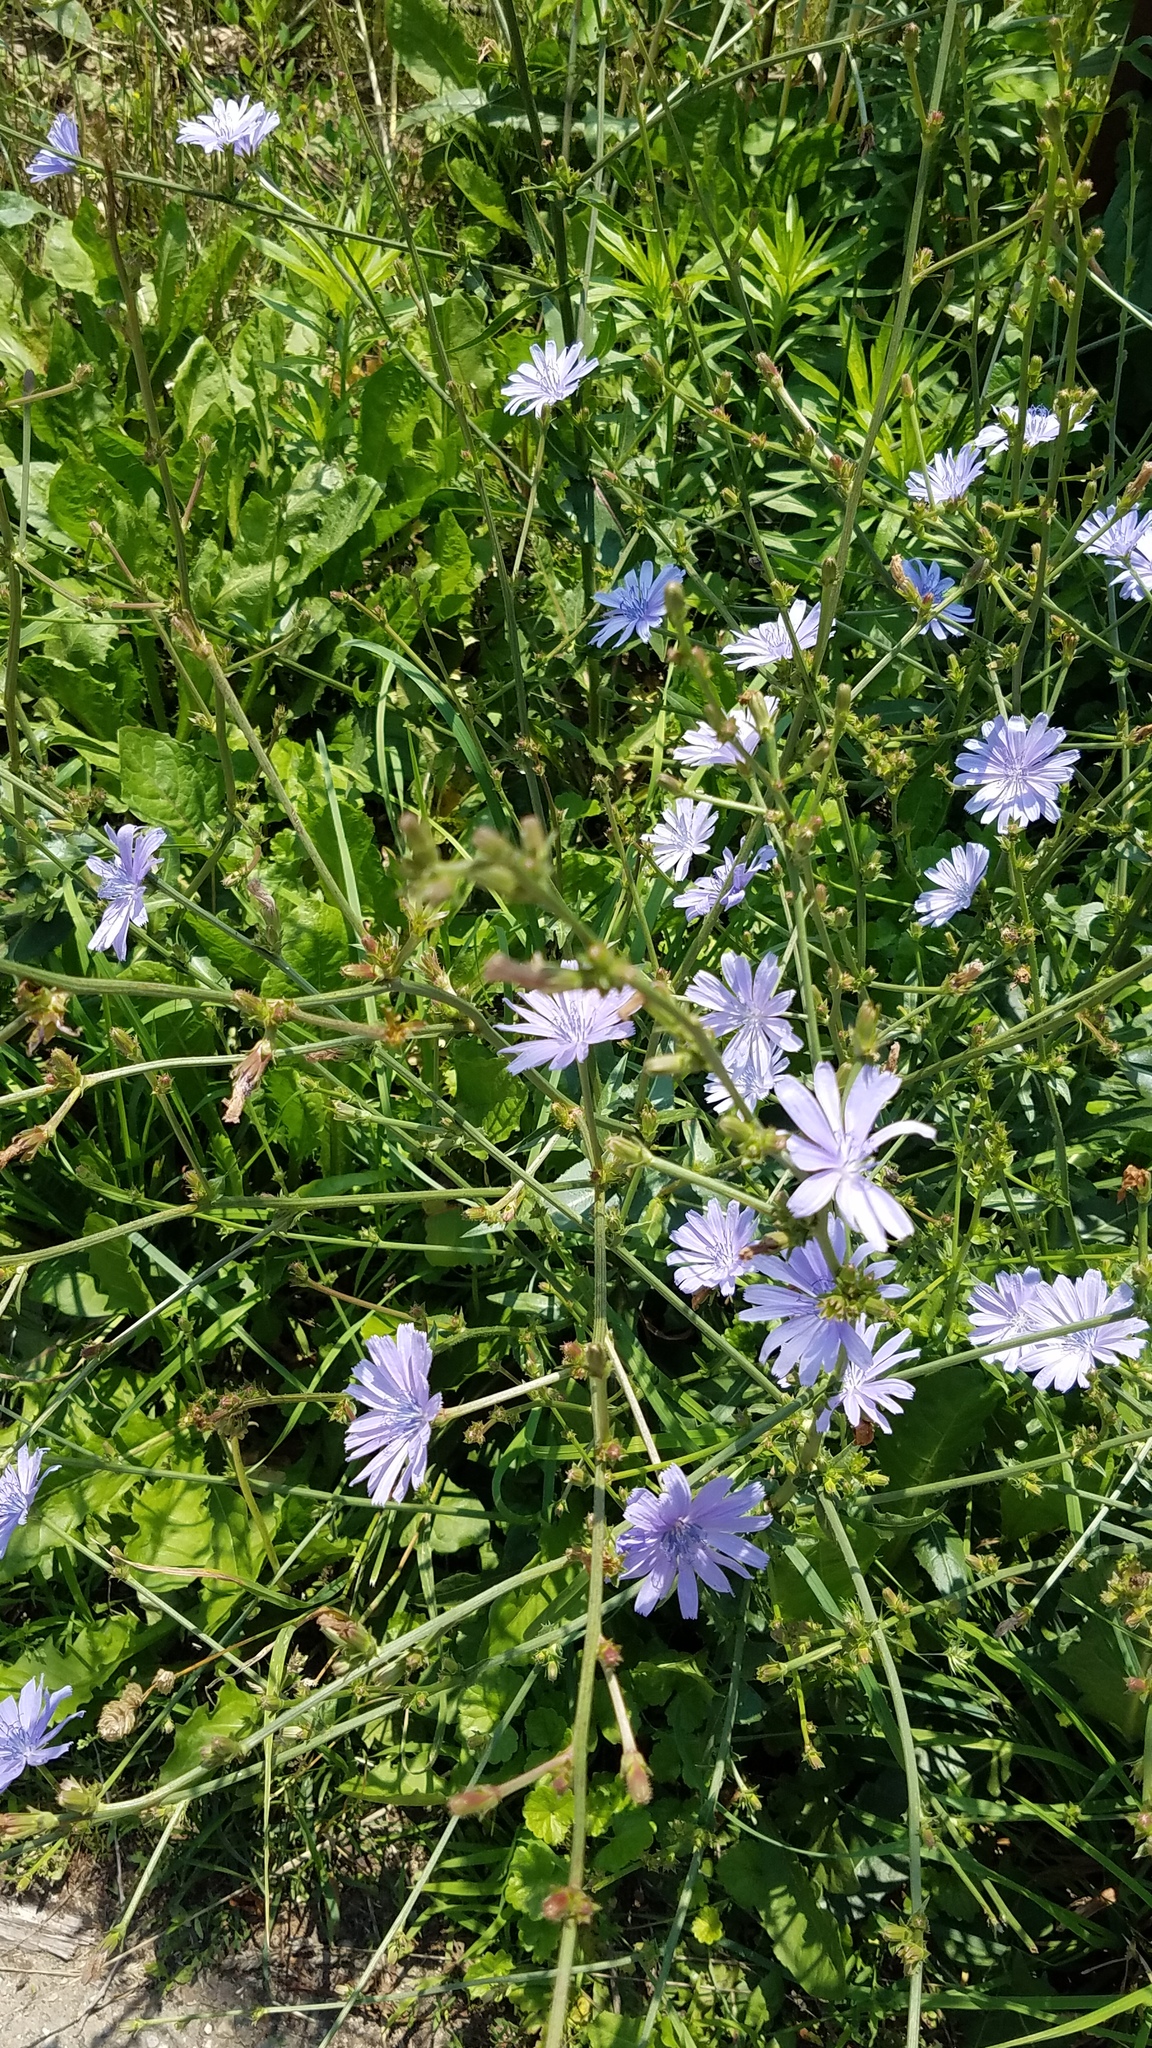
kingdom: Plantae
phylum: Tracheophyta
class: Magnoliopsida
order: Asterales
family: Asteraceae
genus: Cichorium
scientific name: Cichorium intybus
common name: Chicory
